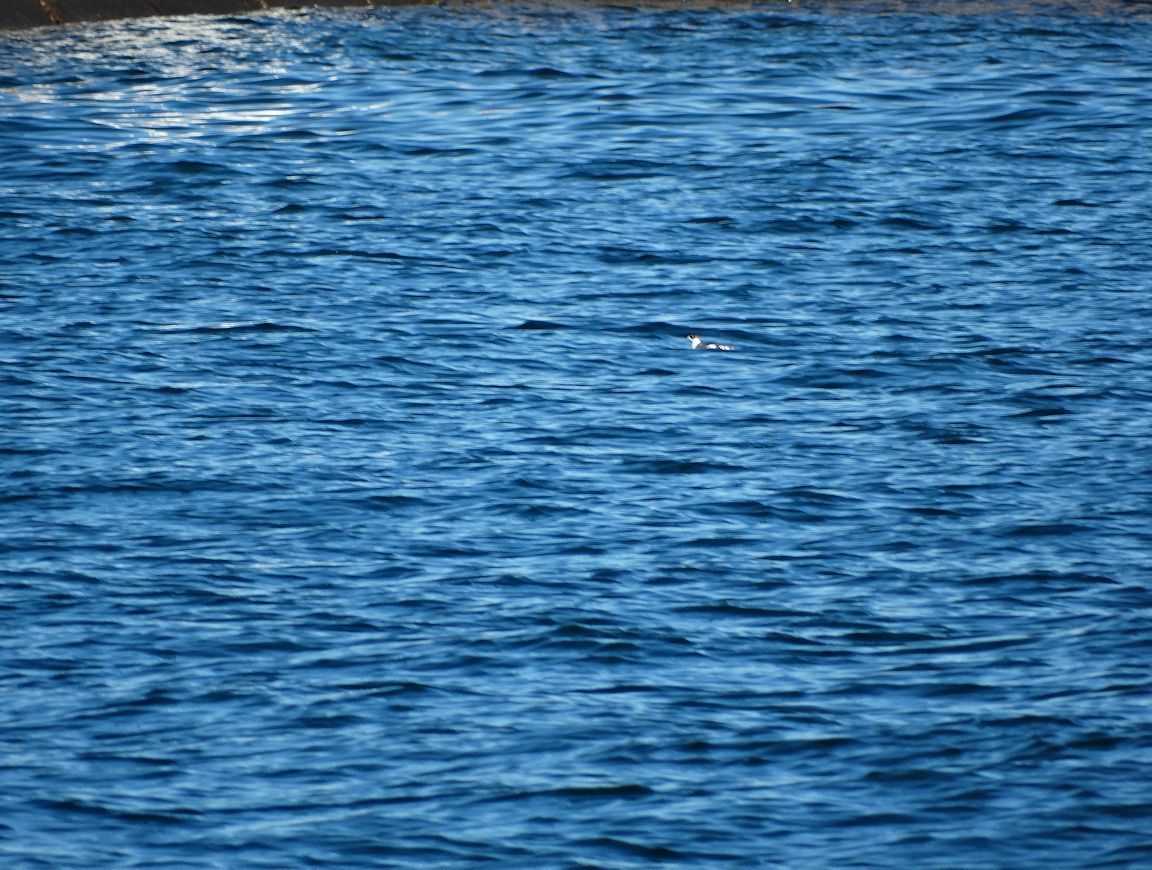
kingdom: Animalia
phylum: Chordata
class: Aves
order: Charadriiformes
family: Alcidae
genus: Brachyramphus
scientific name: Brachyramphus marmoratus
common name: Marbled murrelet
